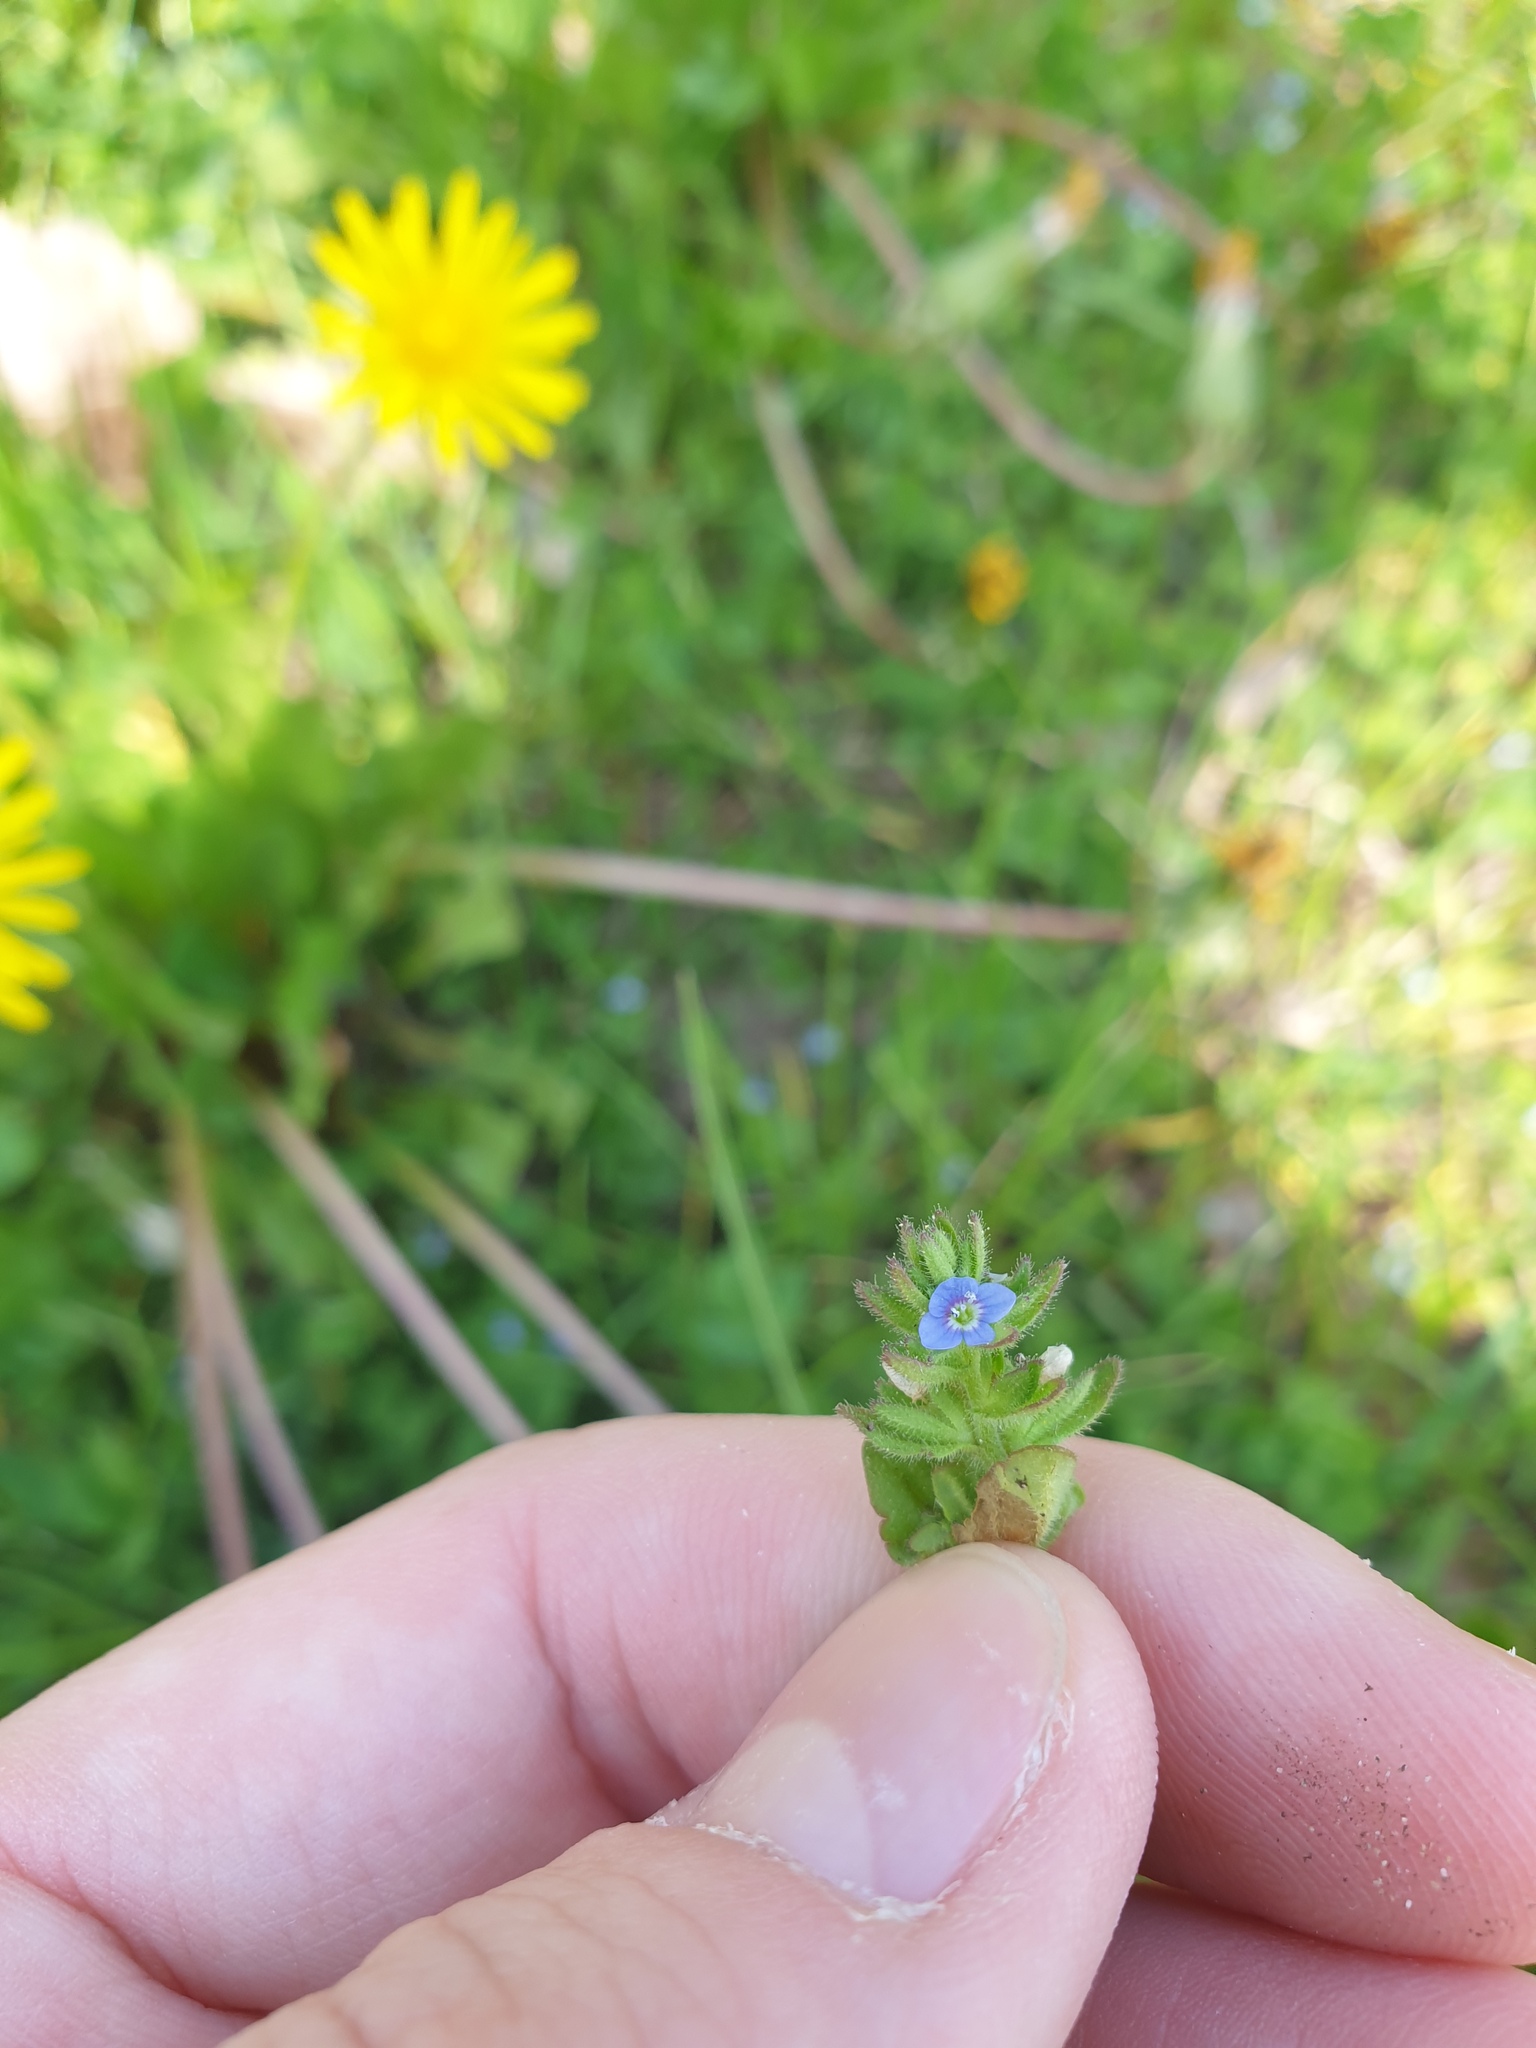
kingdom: Plantae
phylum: Tracheophyta
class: Magnoliopsida
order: Lamiales
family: Plantaginaceae
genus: Veronica
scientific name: Veronica arvensis
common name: Corn speedwell
